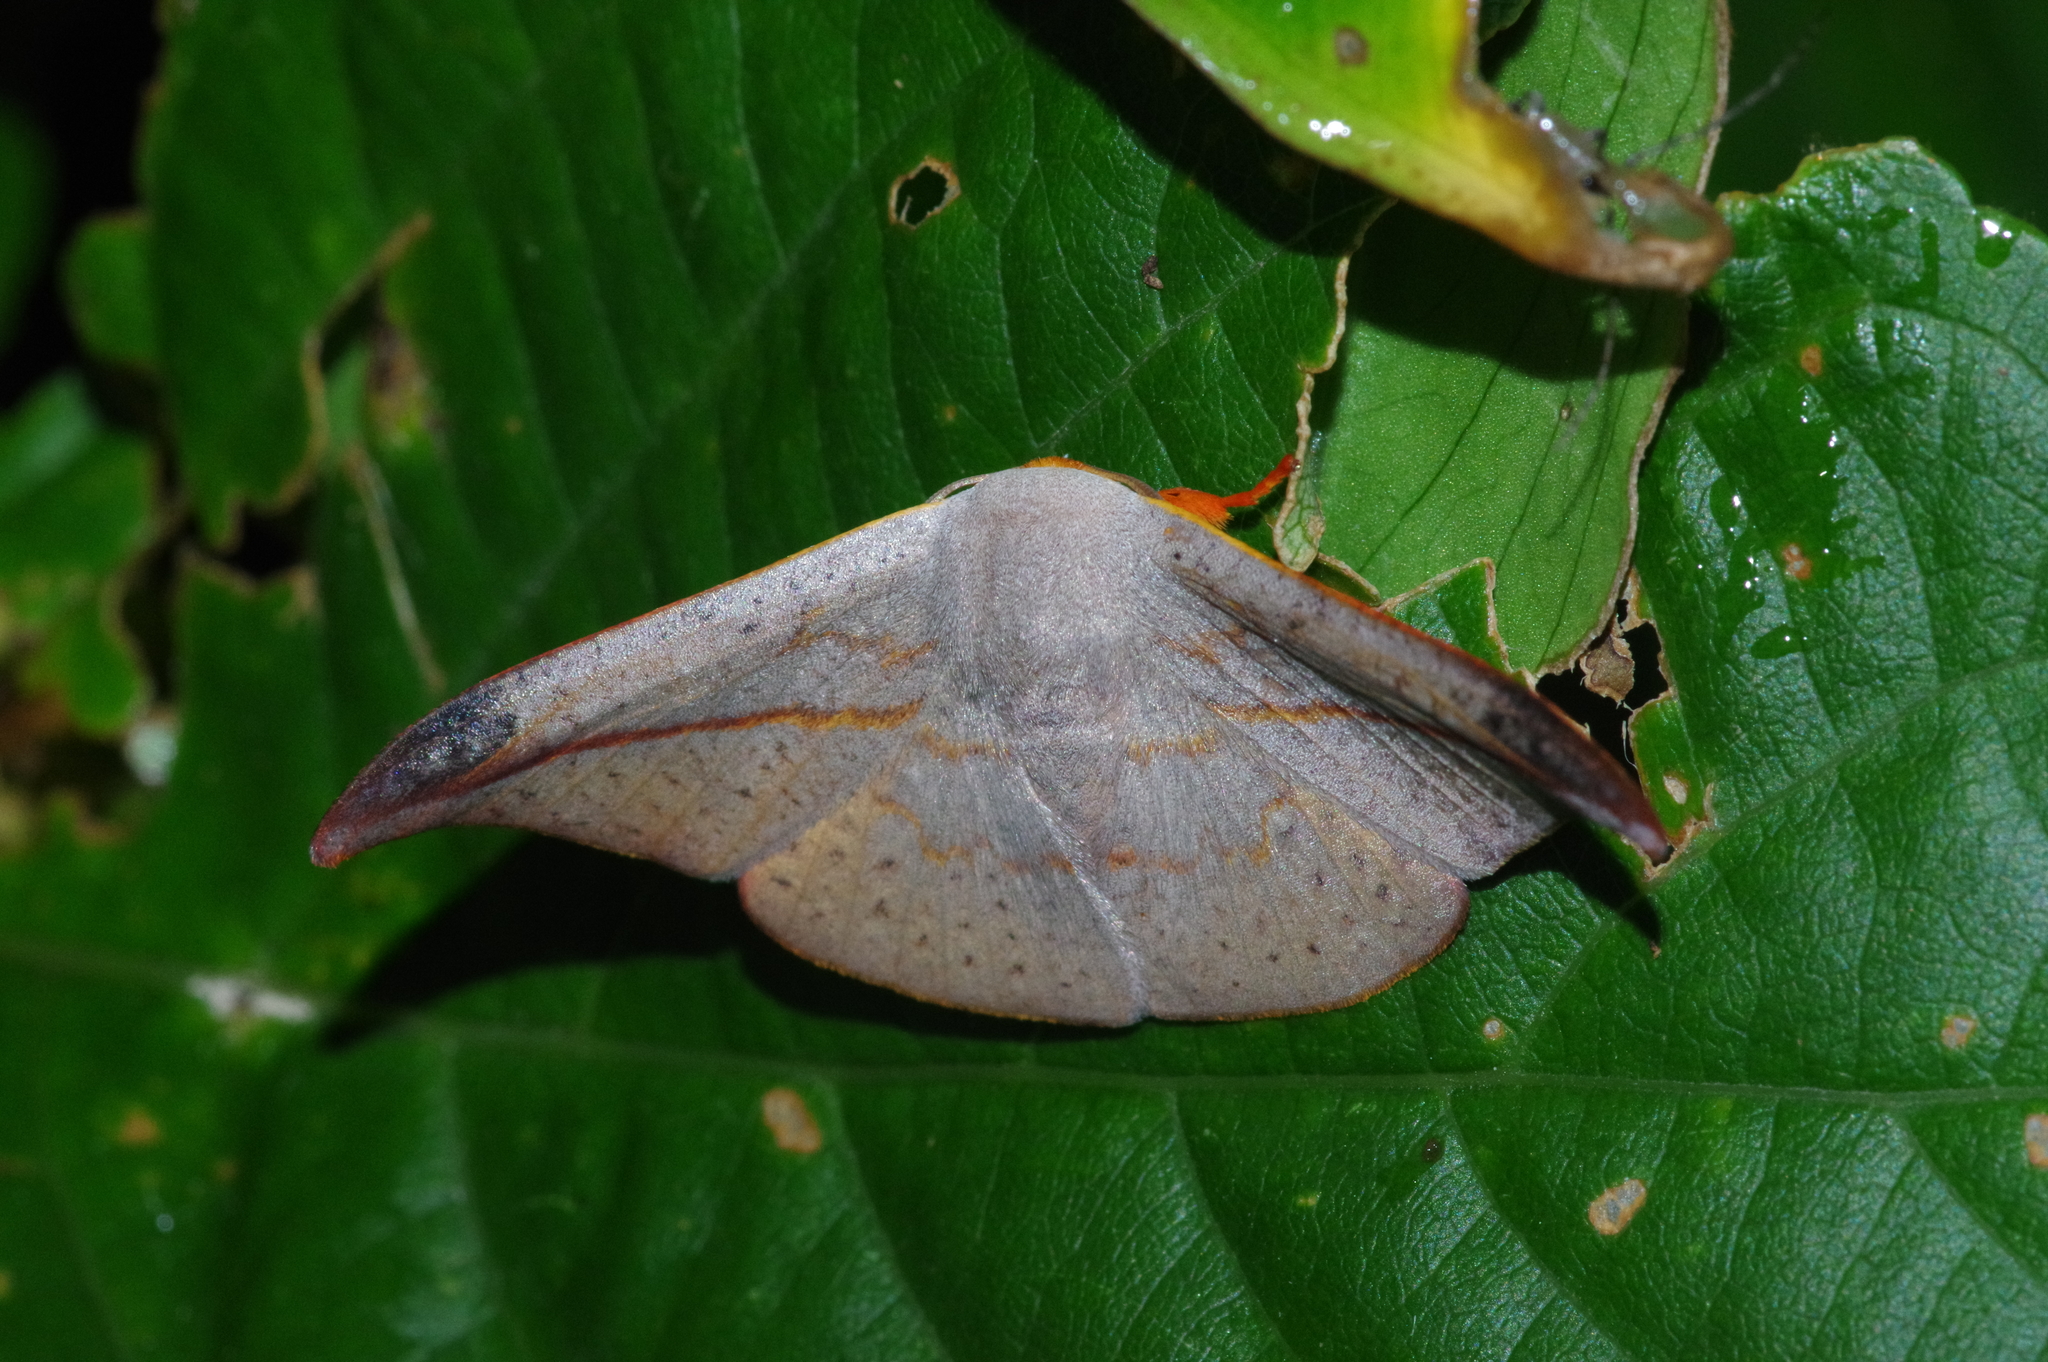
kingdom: Animalia
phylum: Arthropoda
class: Insecta
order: Lepidoptera
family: Drepanidae
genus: Oreta
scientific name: Oreta insignis
